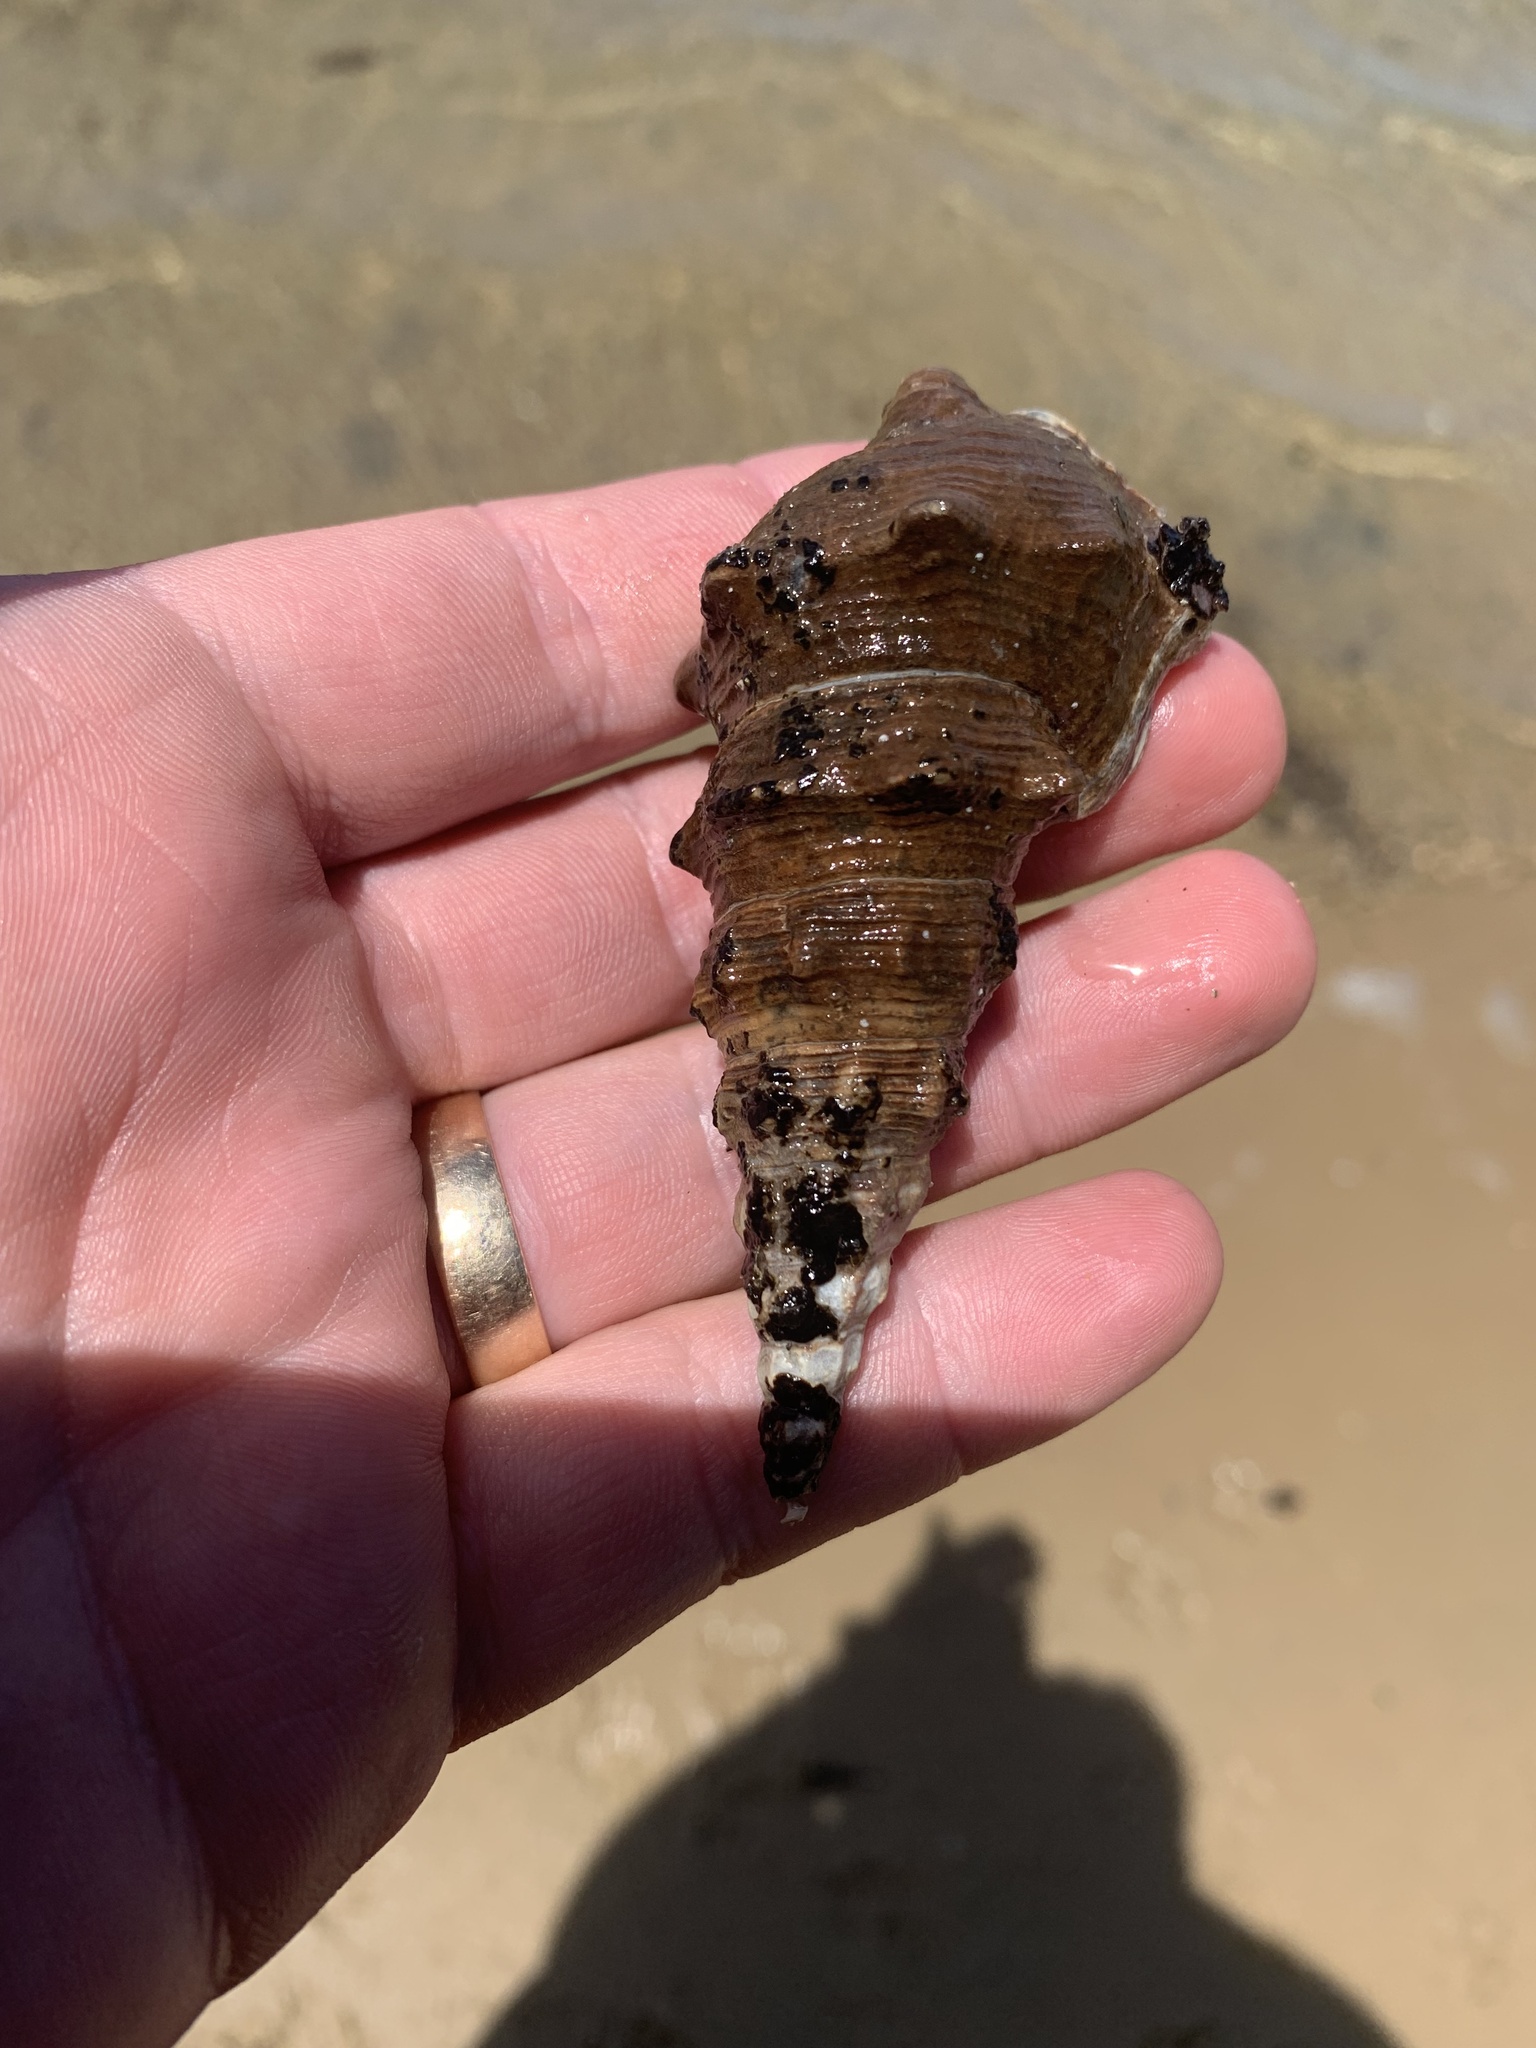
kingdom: Animalia
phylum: Mollusca
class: Gastropoda
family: Batillariidae
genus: Pyrazus
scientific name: Pyrazus ebeninus
